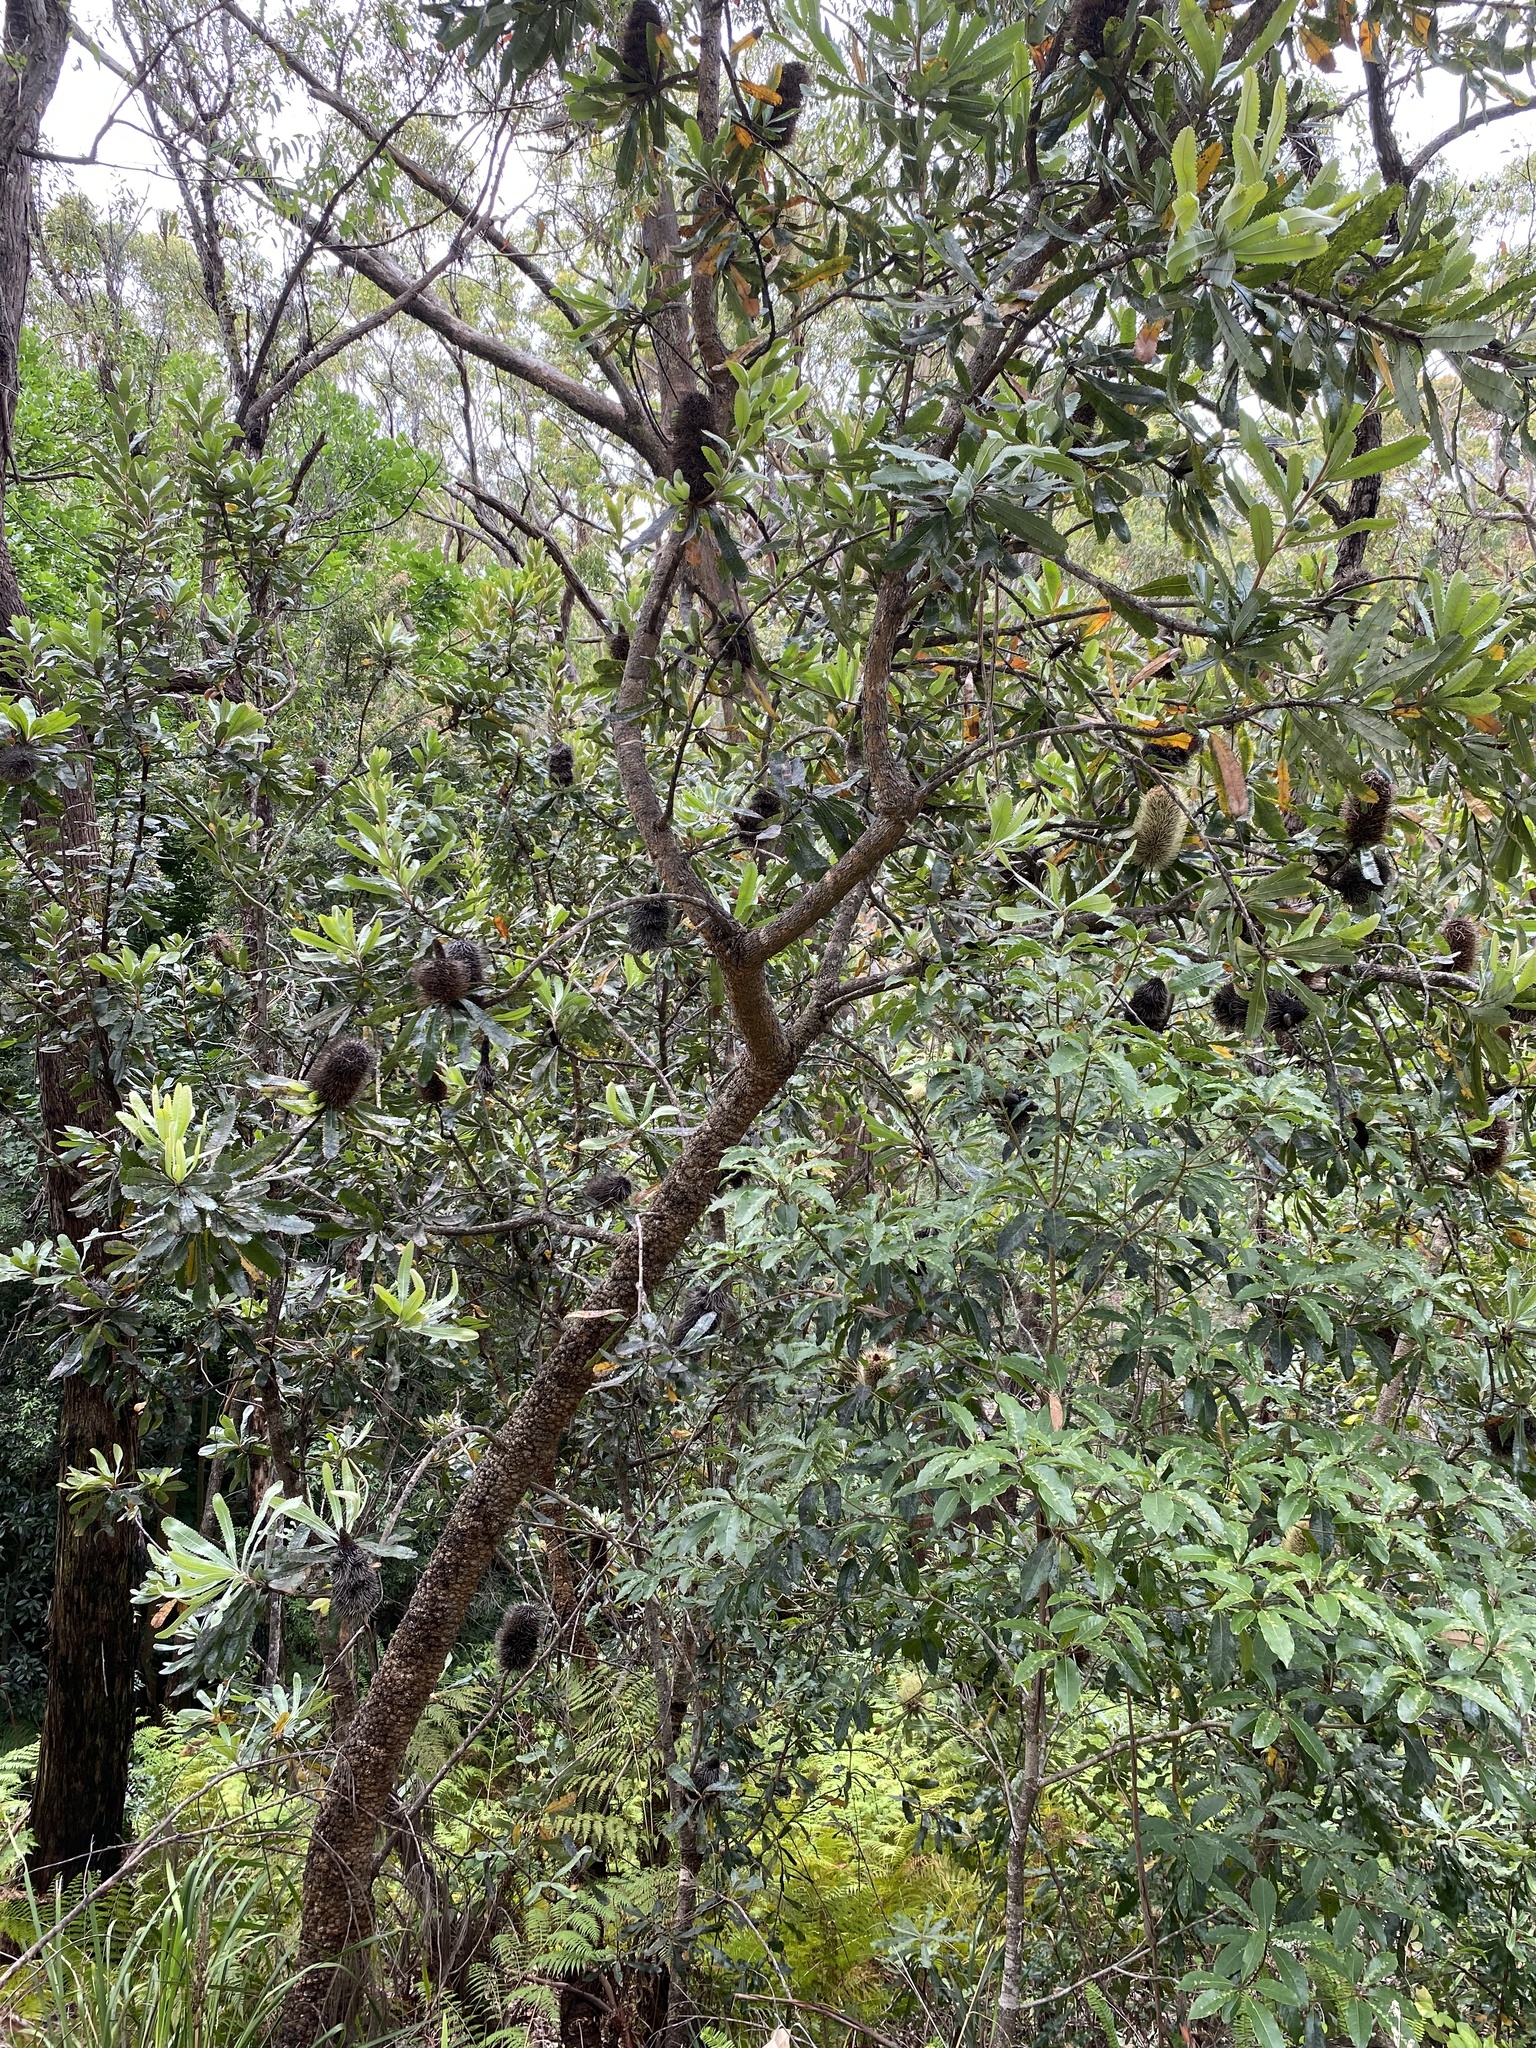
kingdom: Plantae
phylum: Tracheophyta
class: Magnoliopsida
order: Proteales
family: Proteaceae
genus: Banksia
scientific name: Banksia serrata
